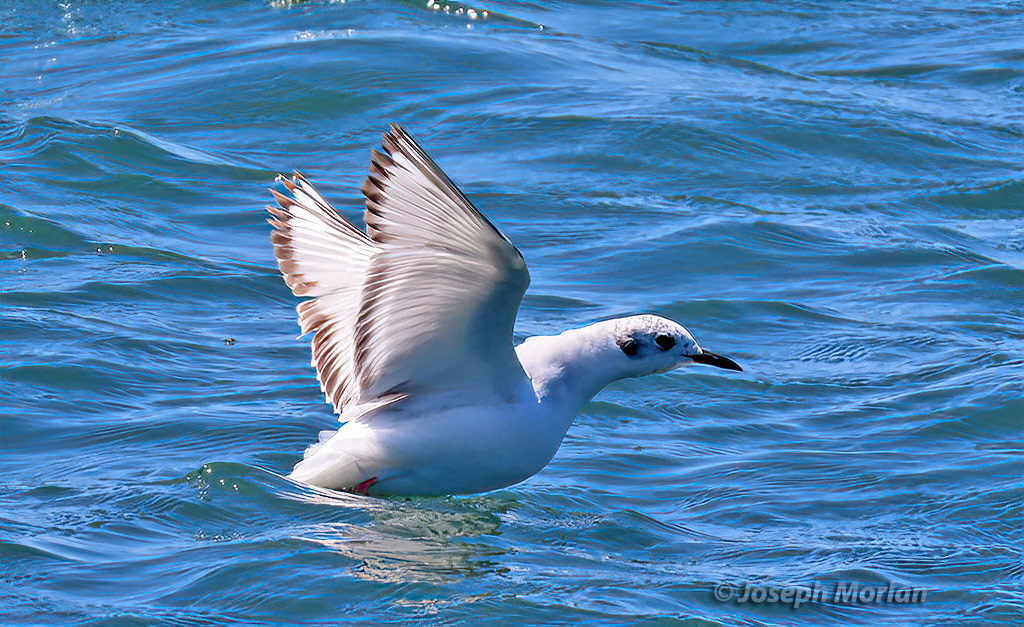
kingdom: Animalia
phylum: Chordata
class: Aves
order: Charadriiformes
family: Laridae
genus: Chroicocephalus
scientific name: Chroicocephalus philadelphia
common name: Bonaparte's gull
